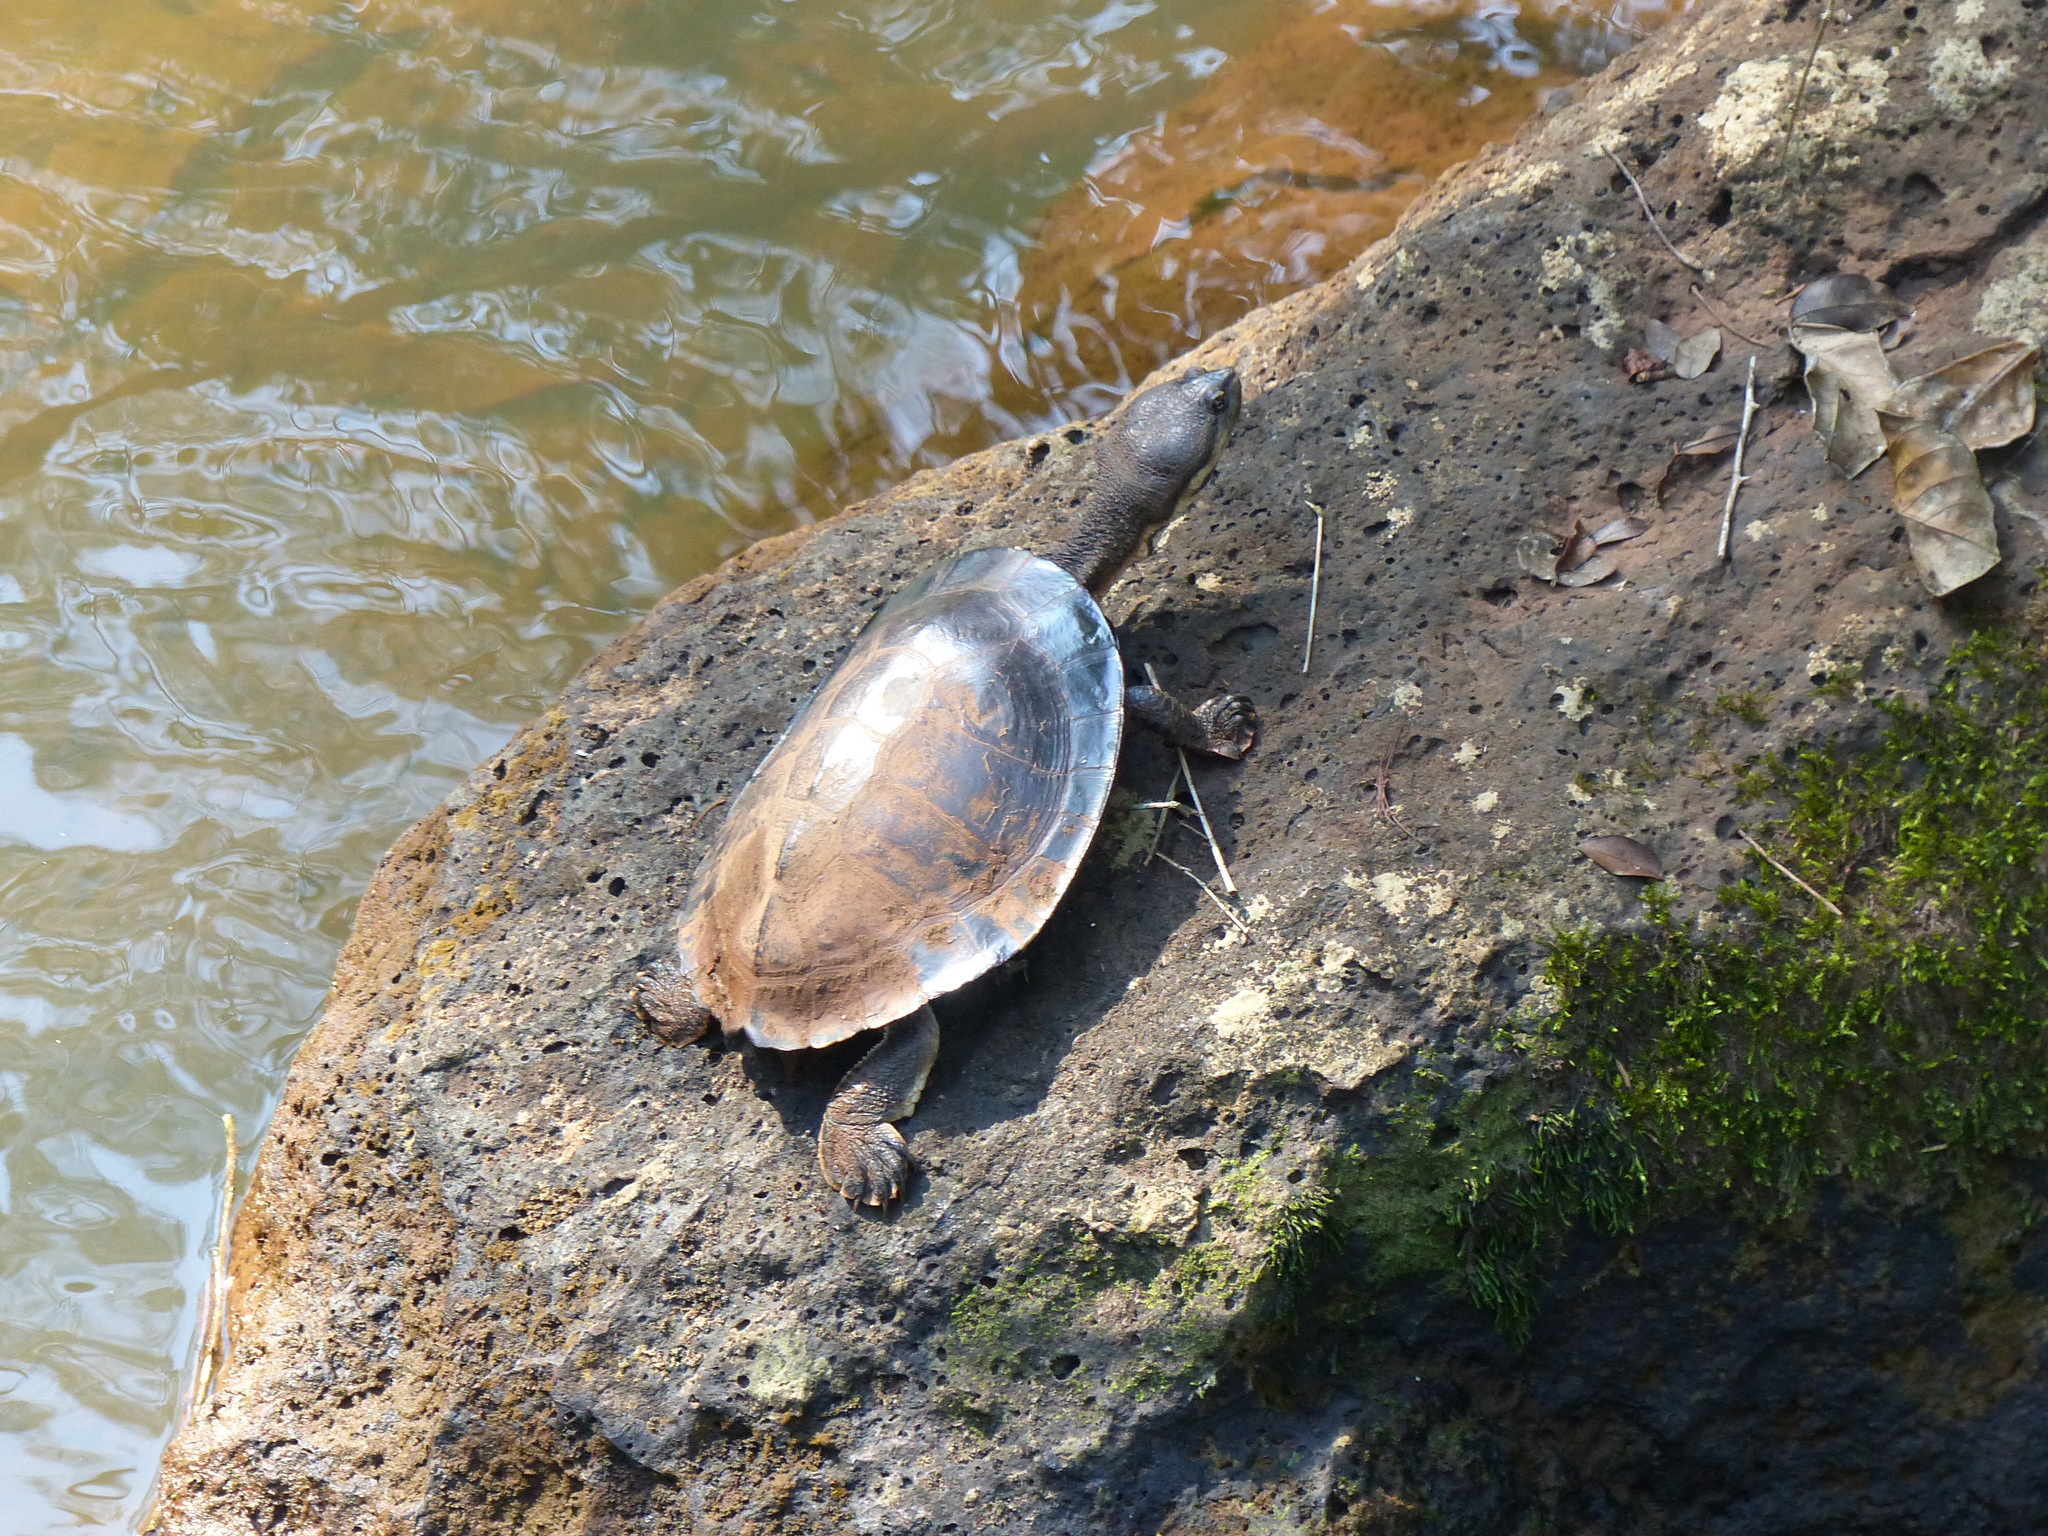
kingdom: Animalia
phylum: Chordata
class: Testudines
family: Chelidae
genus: Phrynops
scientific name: Phrynops williamsi
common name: Williams side-necked turtle
